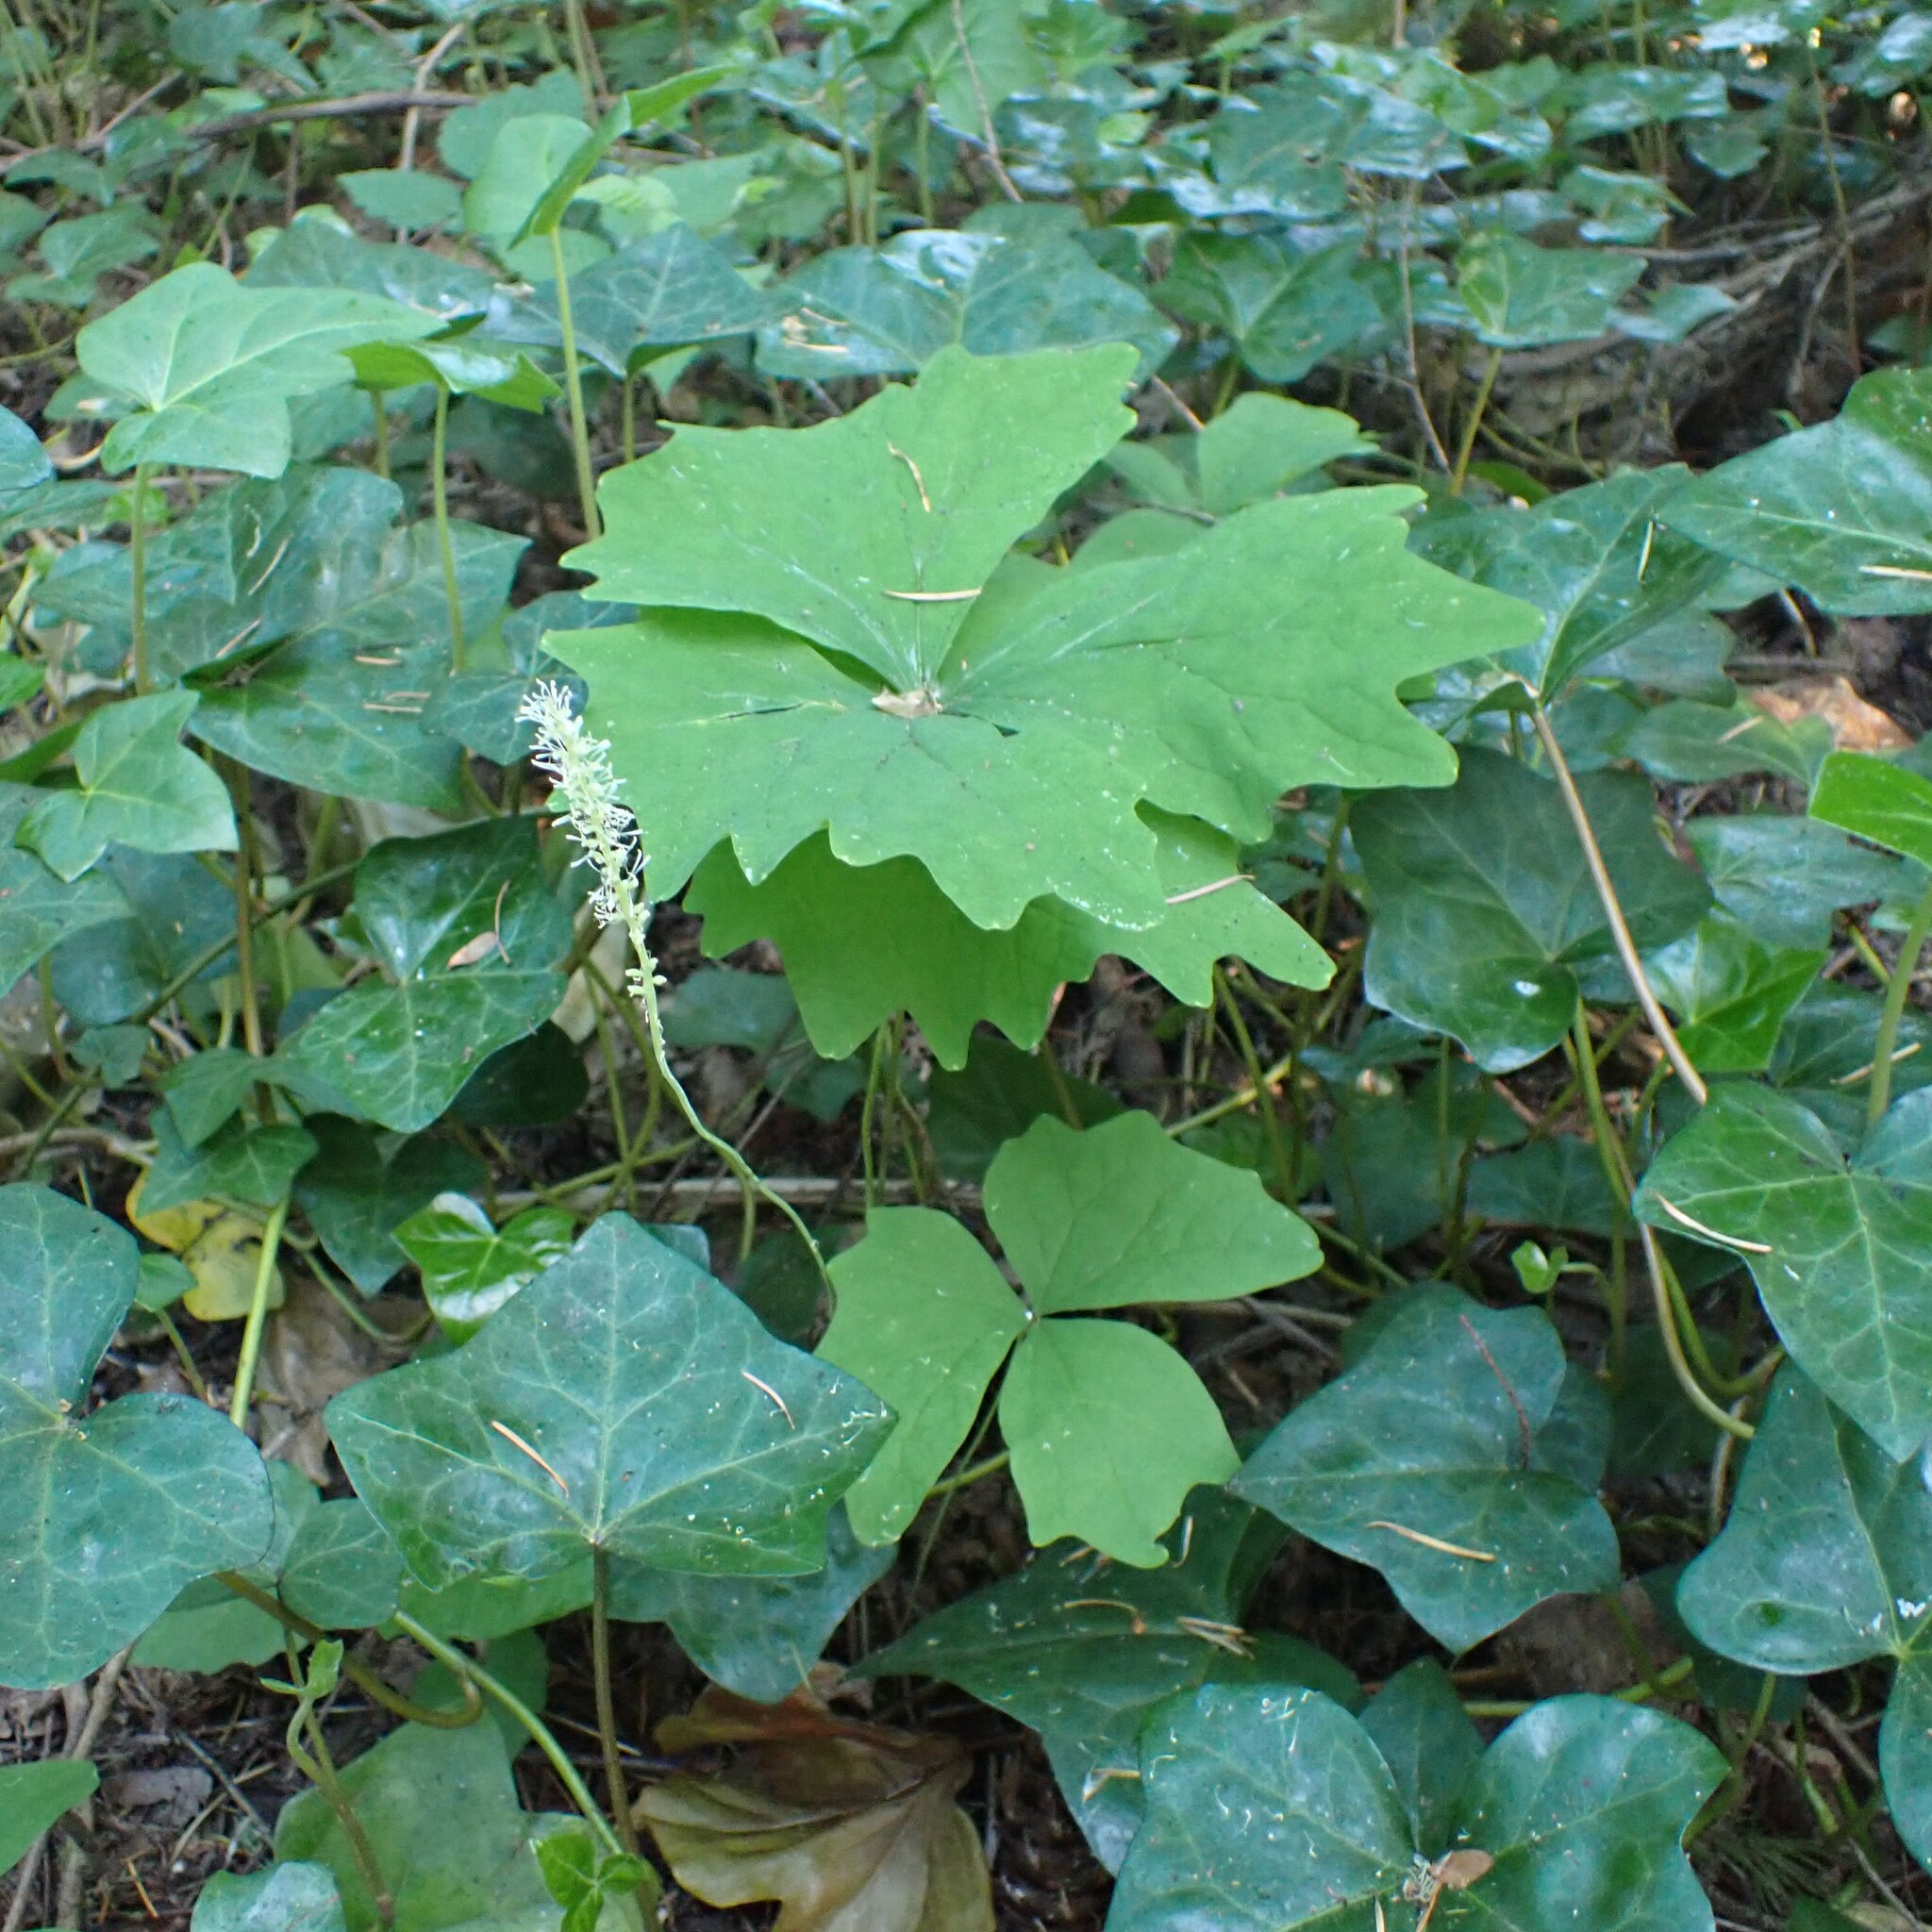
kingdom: Plantae
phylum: Tracheophyta
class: Magnoliopsida
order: Ranunculales
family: Berberidaceae
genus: Achlys
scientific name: Achlys triphylla
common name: Vanilla-leaf
